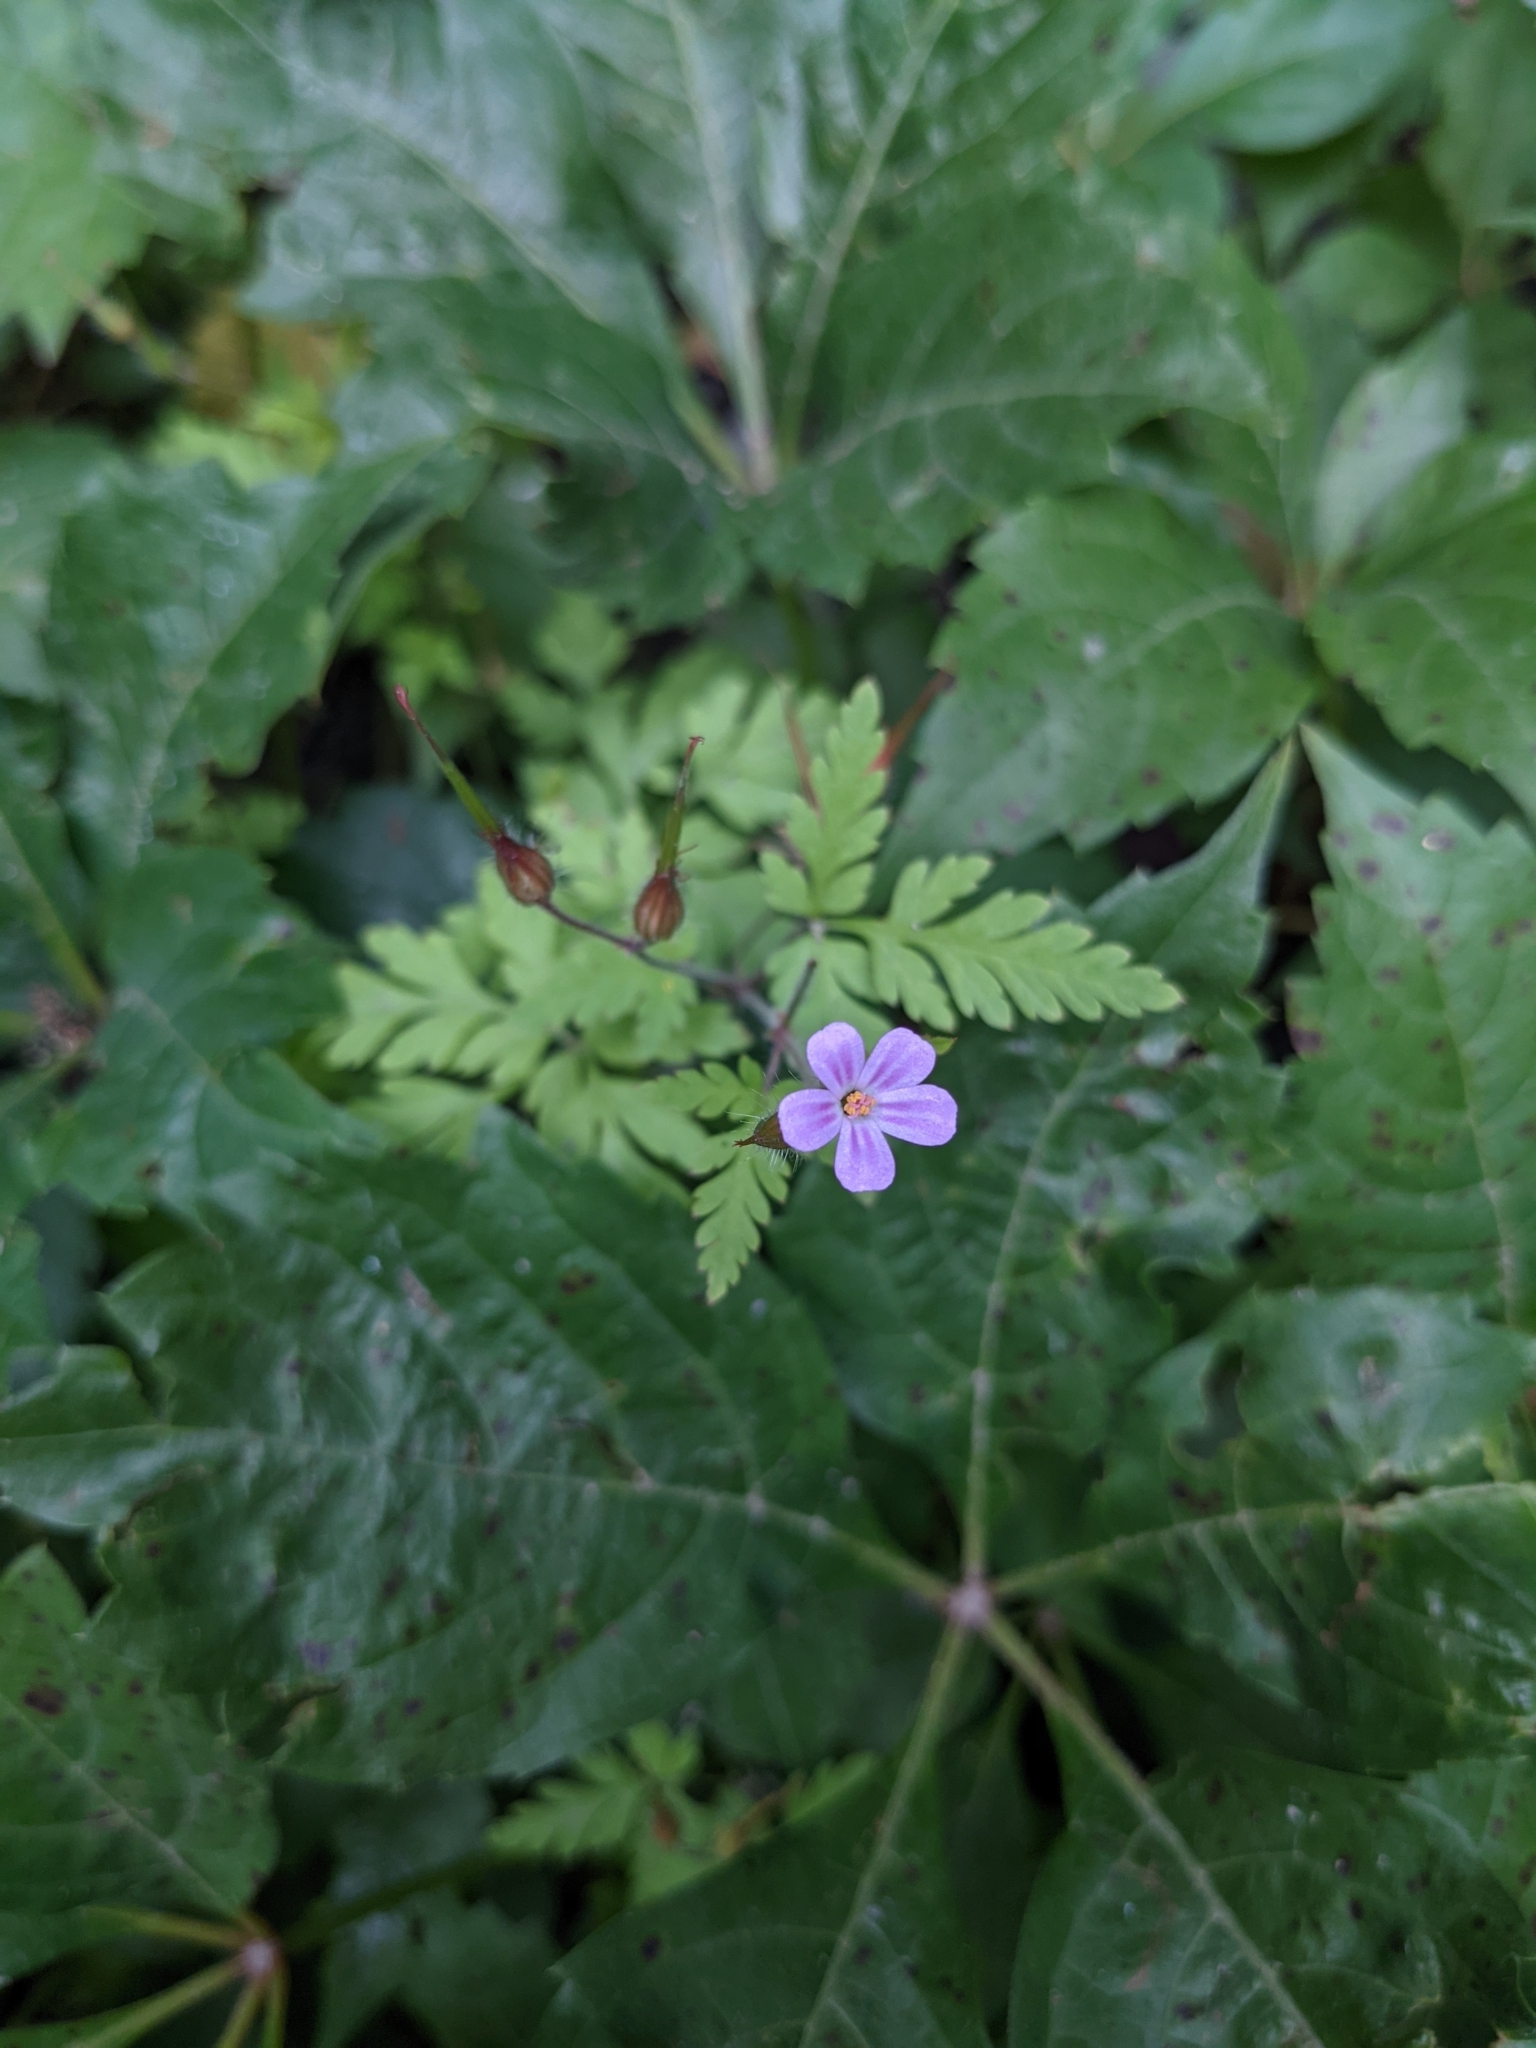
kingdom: Plantae
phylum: Tracheophyta
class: Magnoliopsida
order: Geraniales
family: Geraniaceae
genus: Geranium
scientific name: Geranium robertianum
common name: Herb-robert
